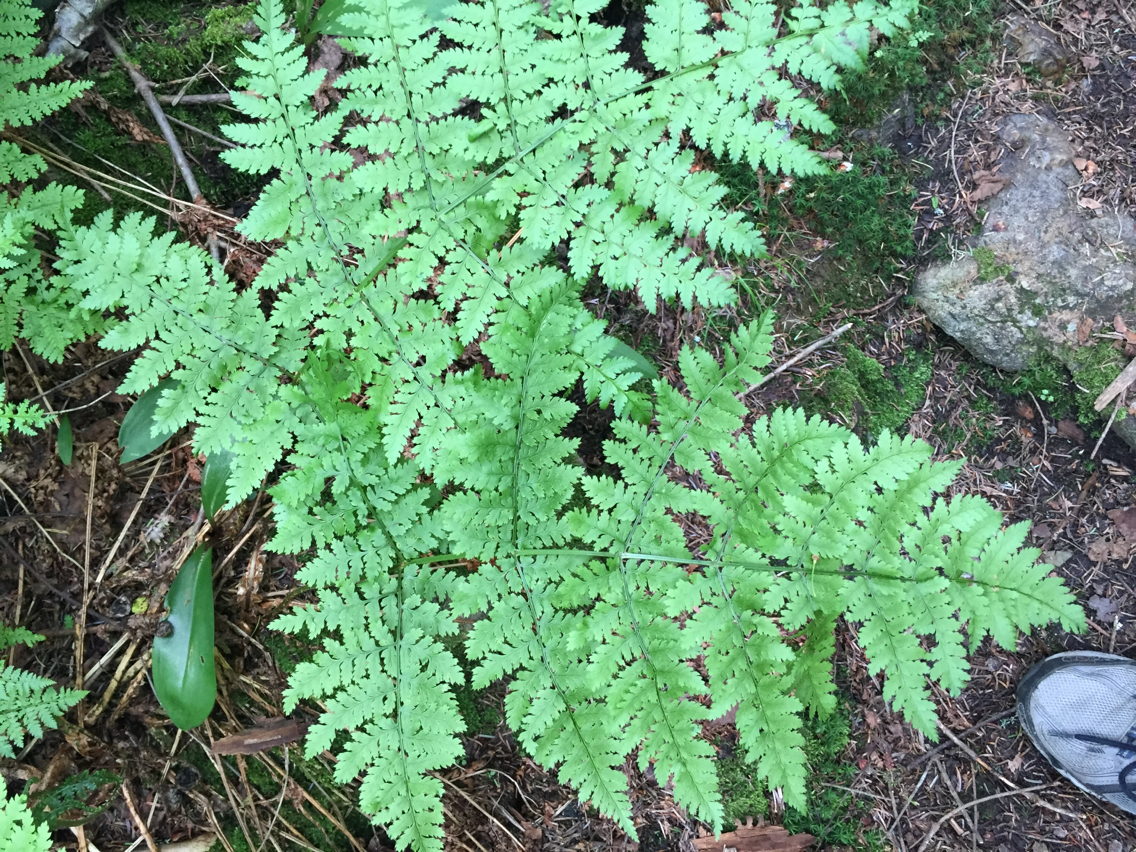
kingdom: Plantae
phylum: Tracheophyta
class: Polypodiopsida
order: Polypodiales
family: Dryopteridaceae
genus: Dryopteris
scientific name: Dryopteris campyloptera
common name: Mountain wood fern
